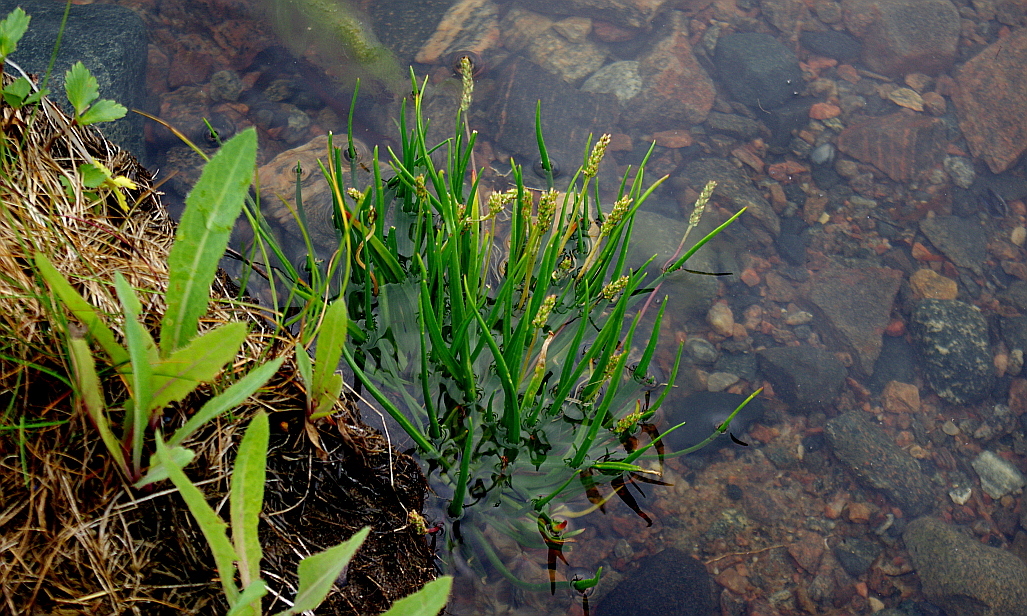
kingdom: Plantae
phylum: Tracheophyta
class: Magnoliopsida
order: Lamiales
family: Plantaginaceae
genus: Plantago
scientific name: Plantago maritima
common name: Sea plantain
